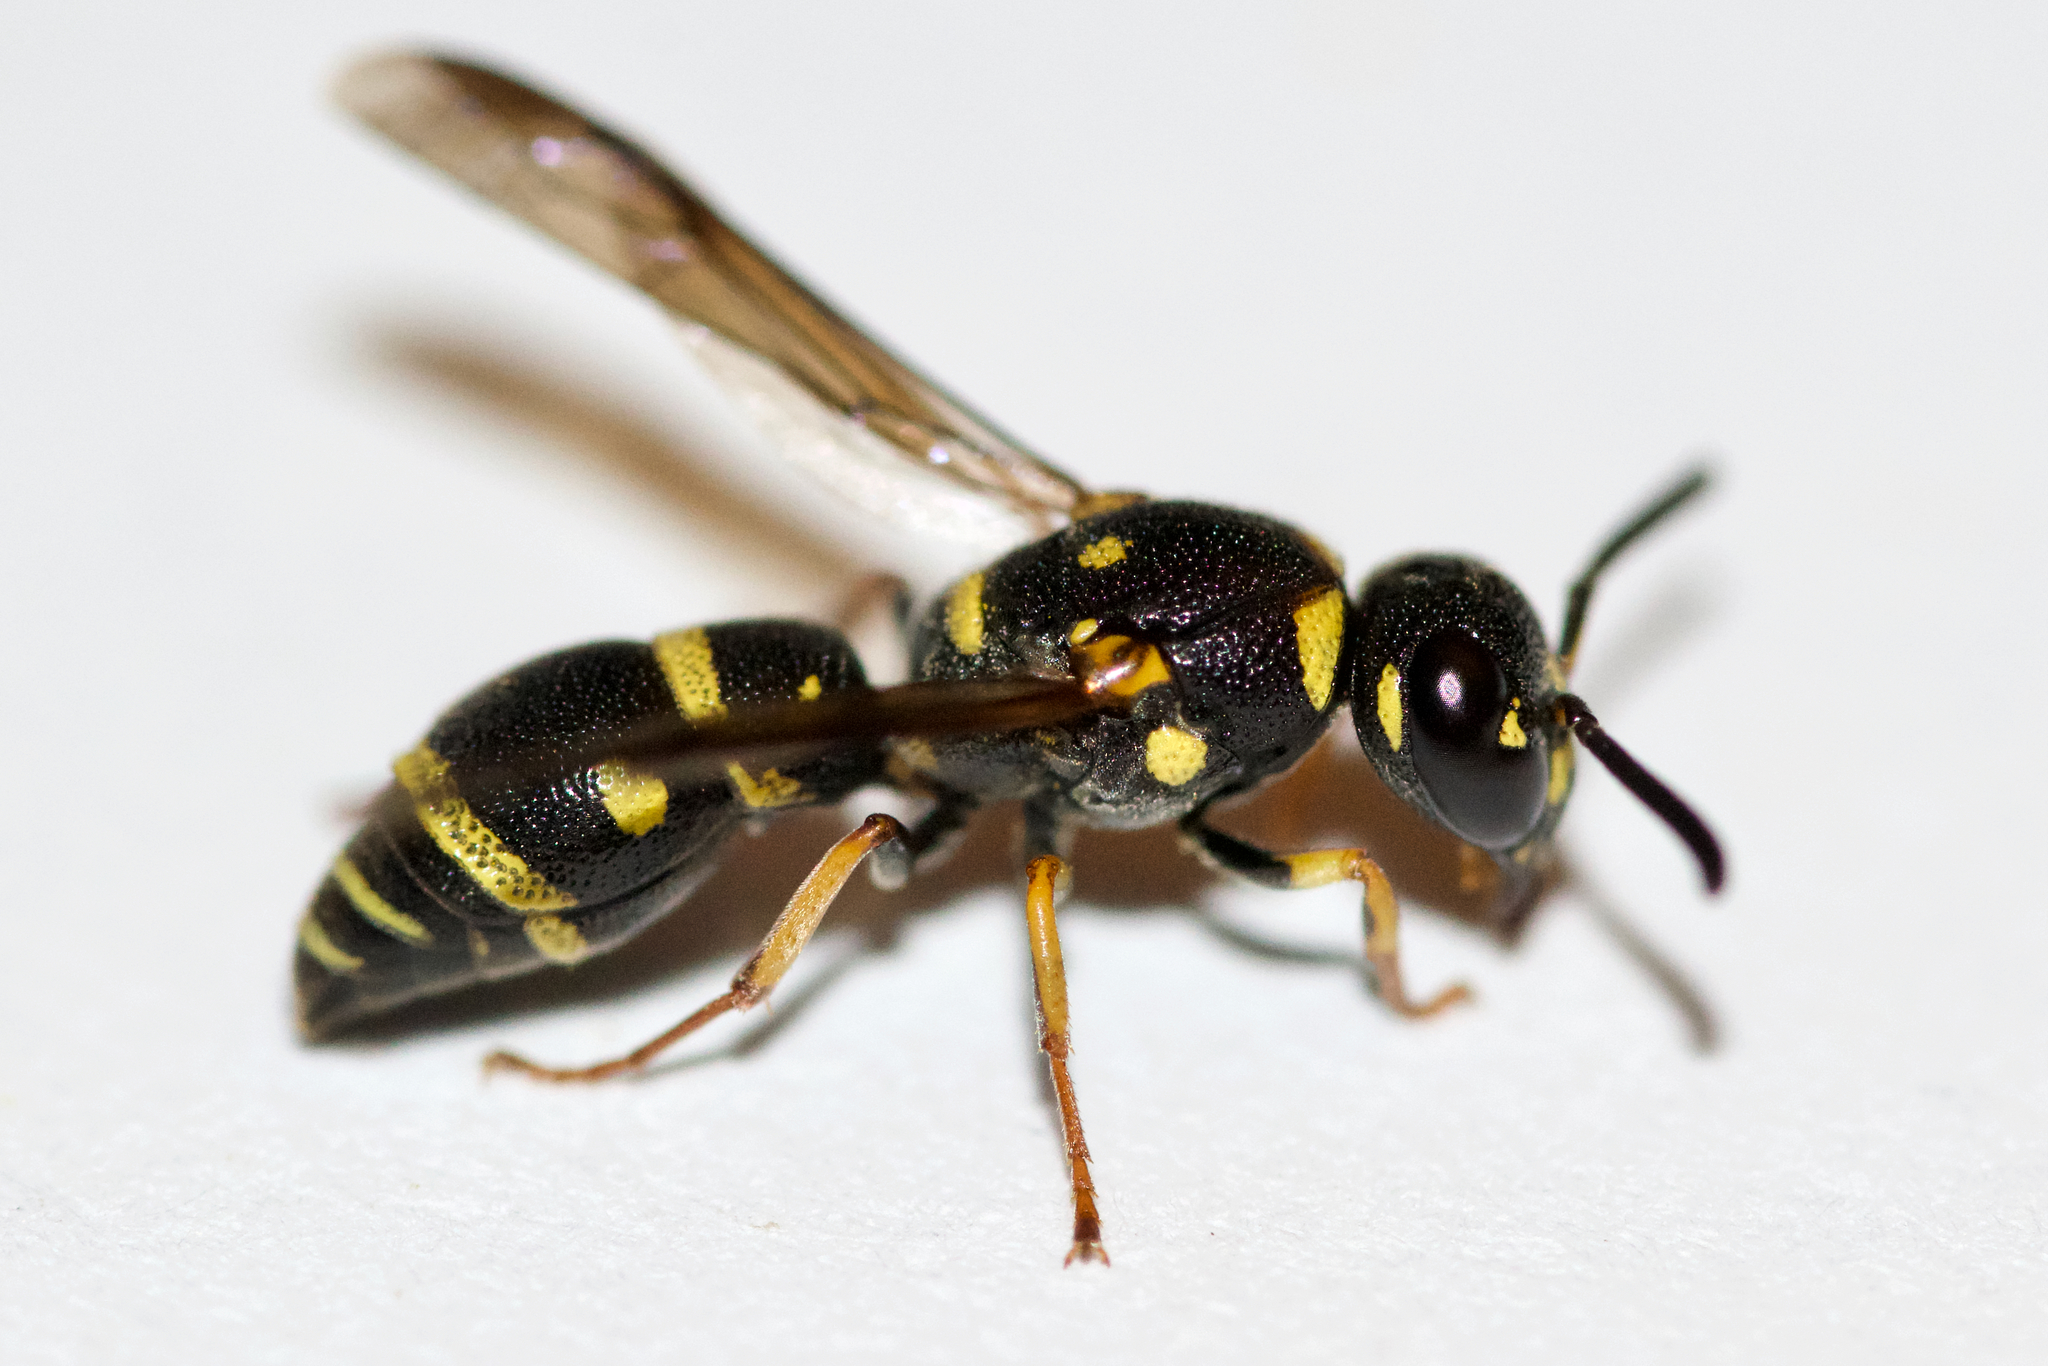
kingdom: Animalia
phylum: Arthropoda
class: Insecta
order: Hymenoptera
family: Eumenidae
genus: Parancistrocerus
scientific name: Parancistrocerus pedestris
